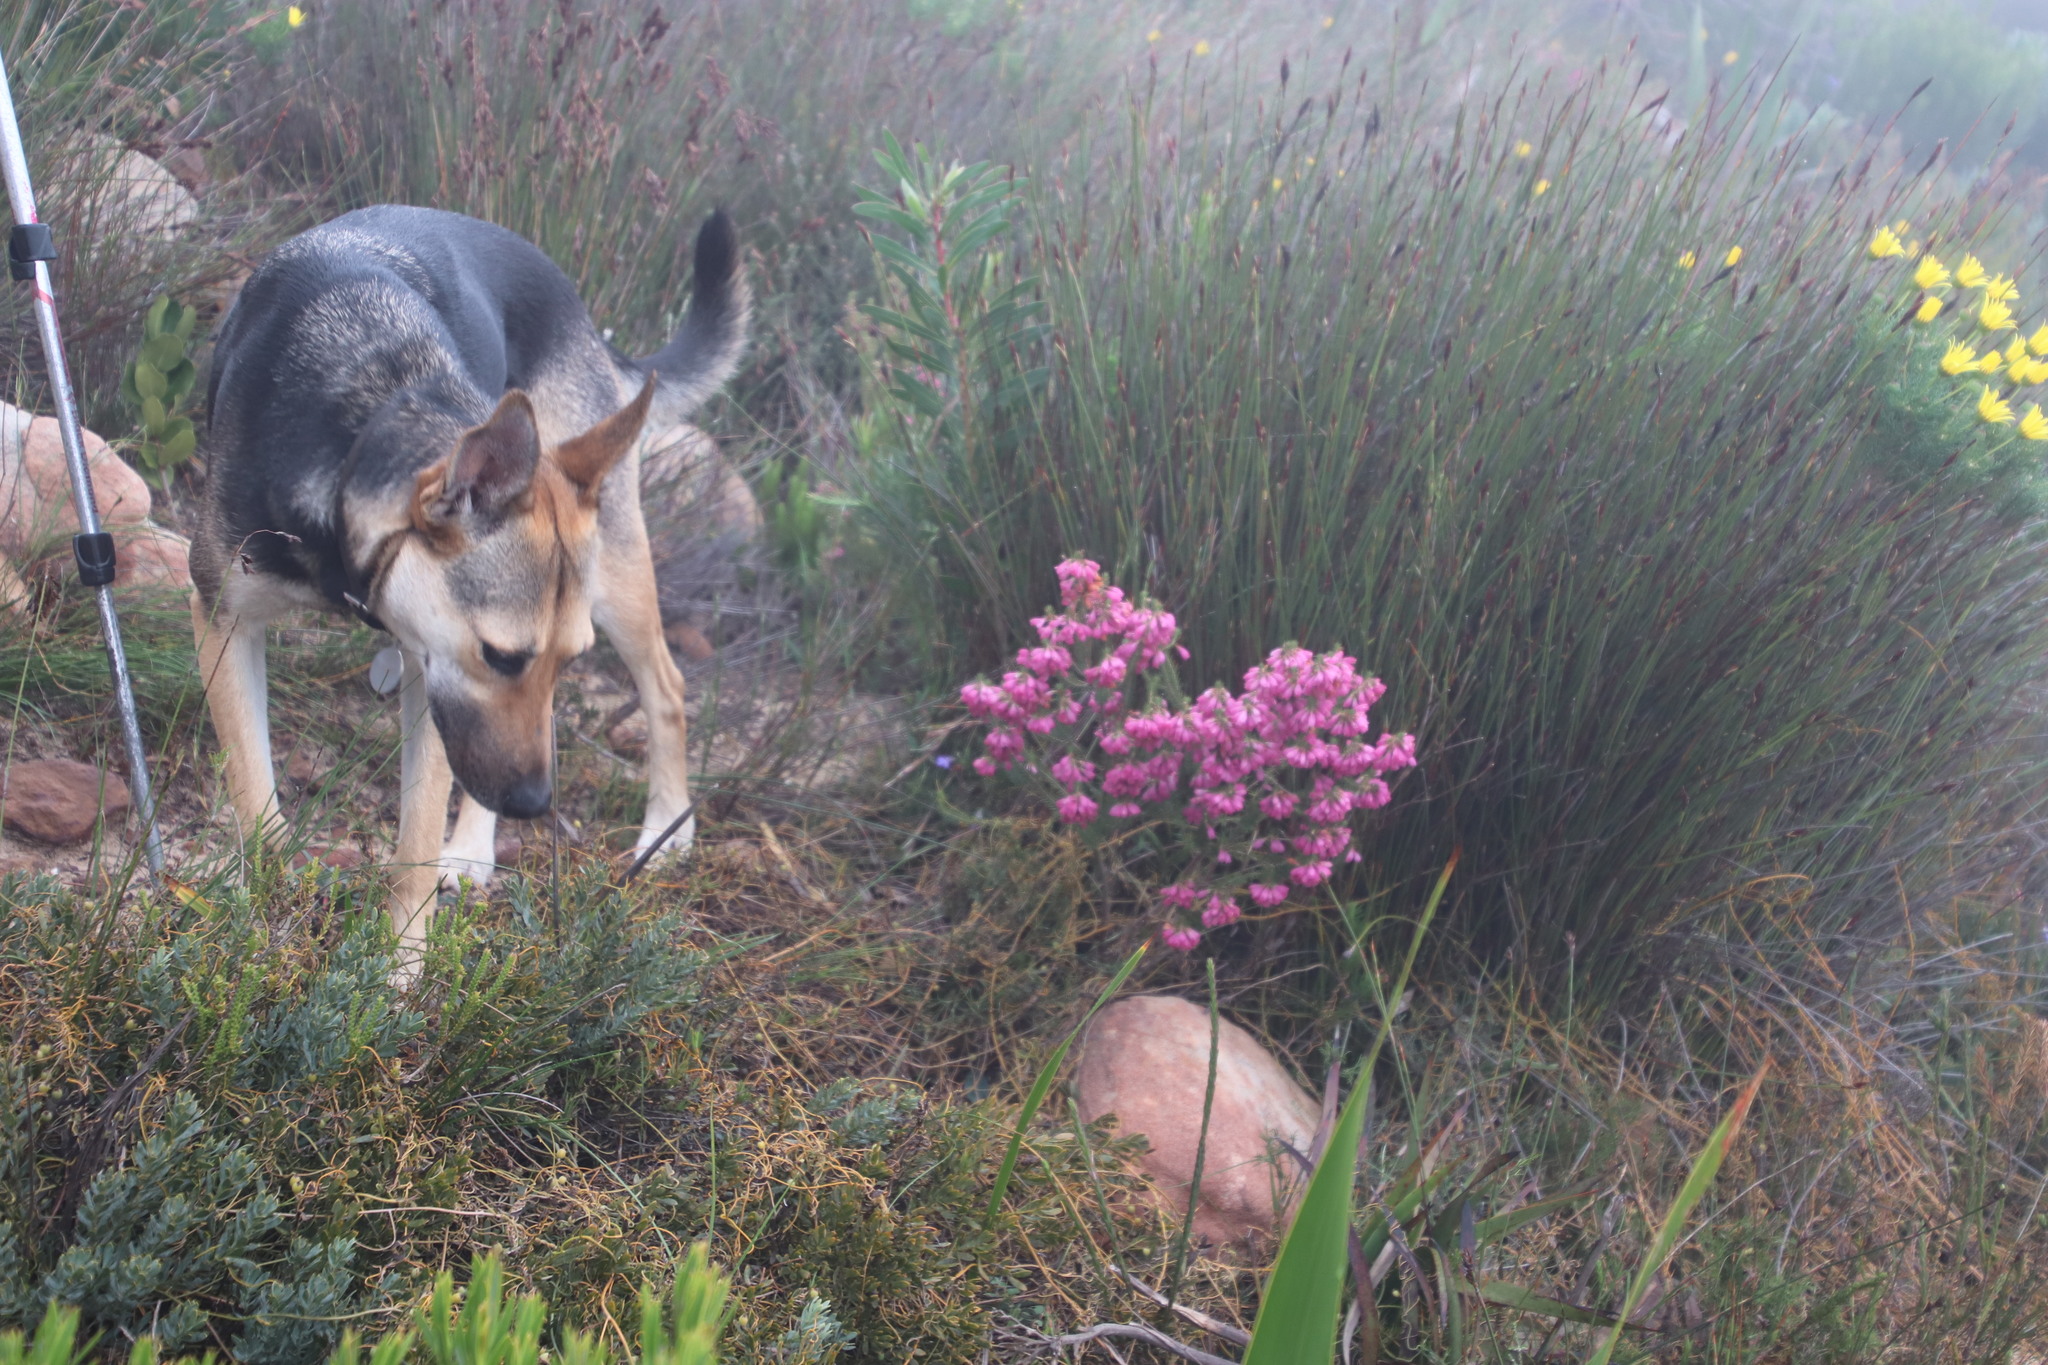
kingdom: Plantae
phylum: Tracheophyta
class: Magnoliopsida
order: Ericales
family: Ericaceae
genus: Erica
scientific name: Erica abietina
